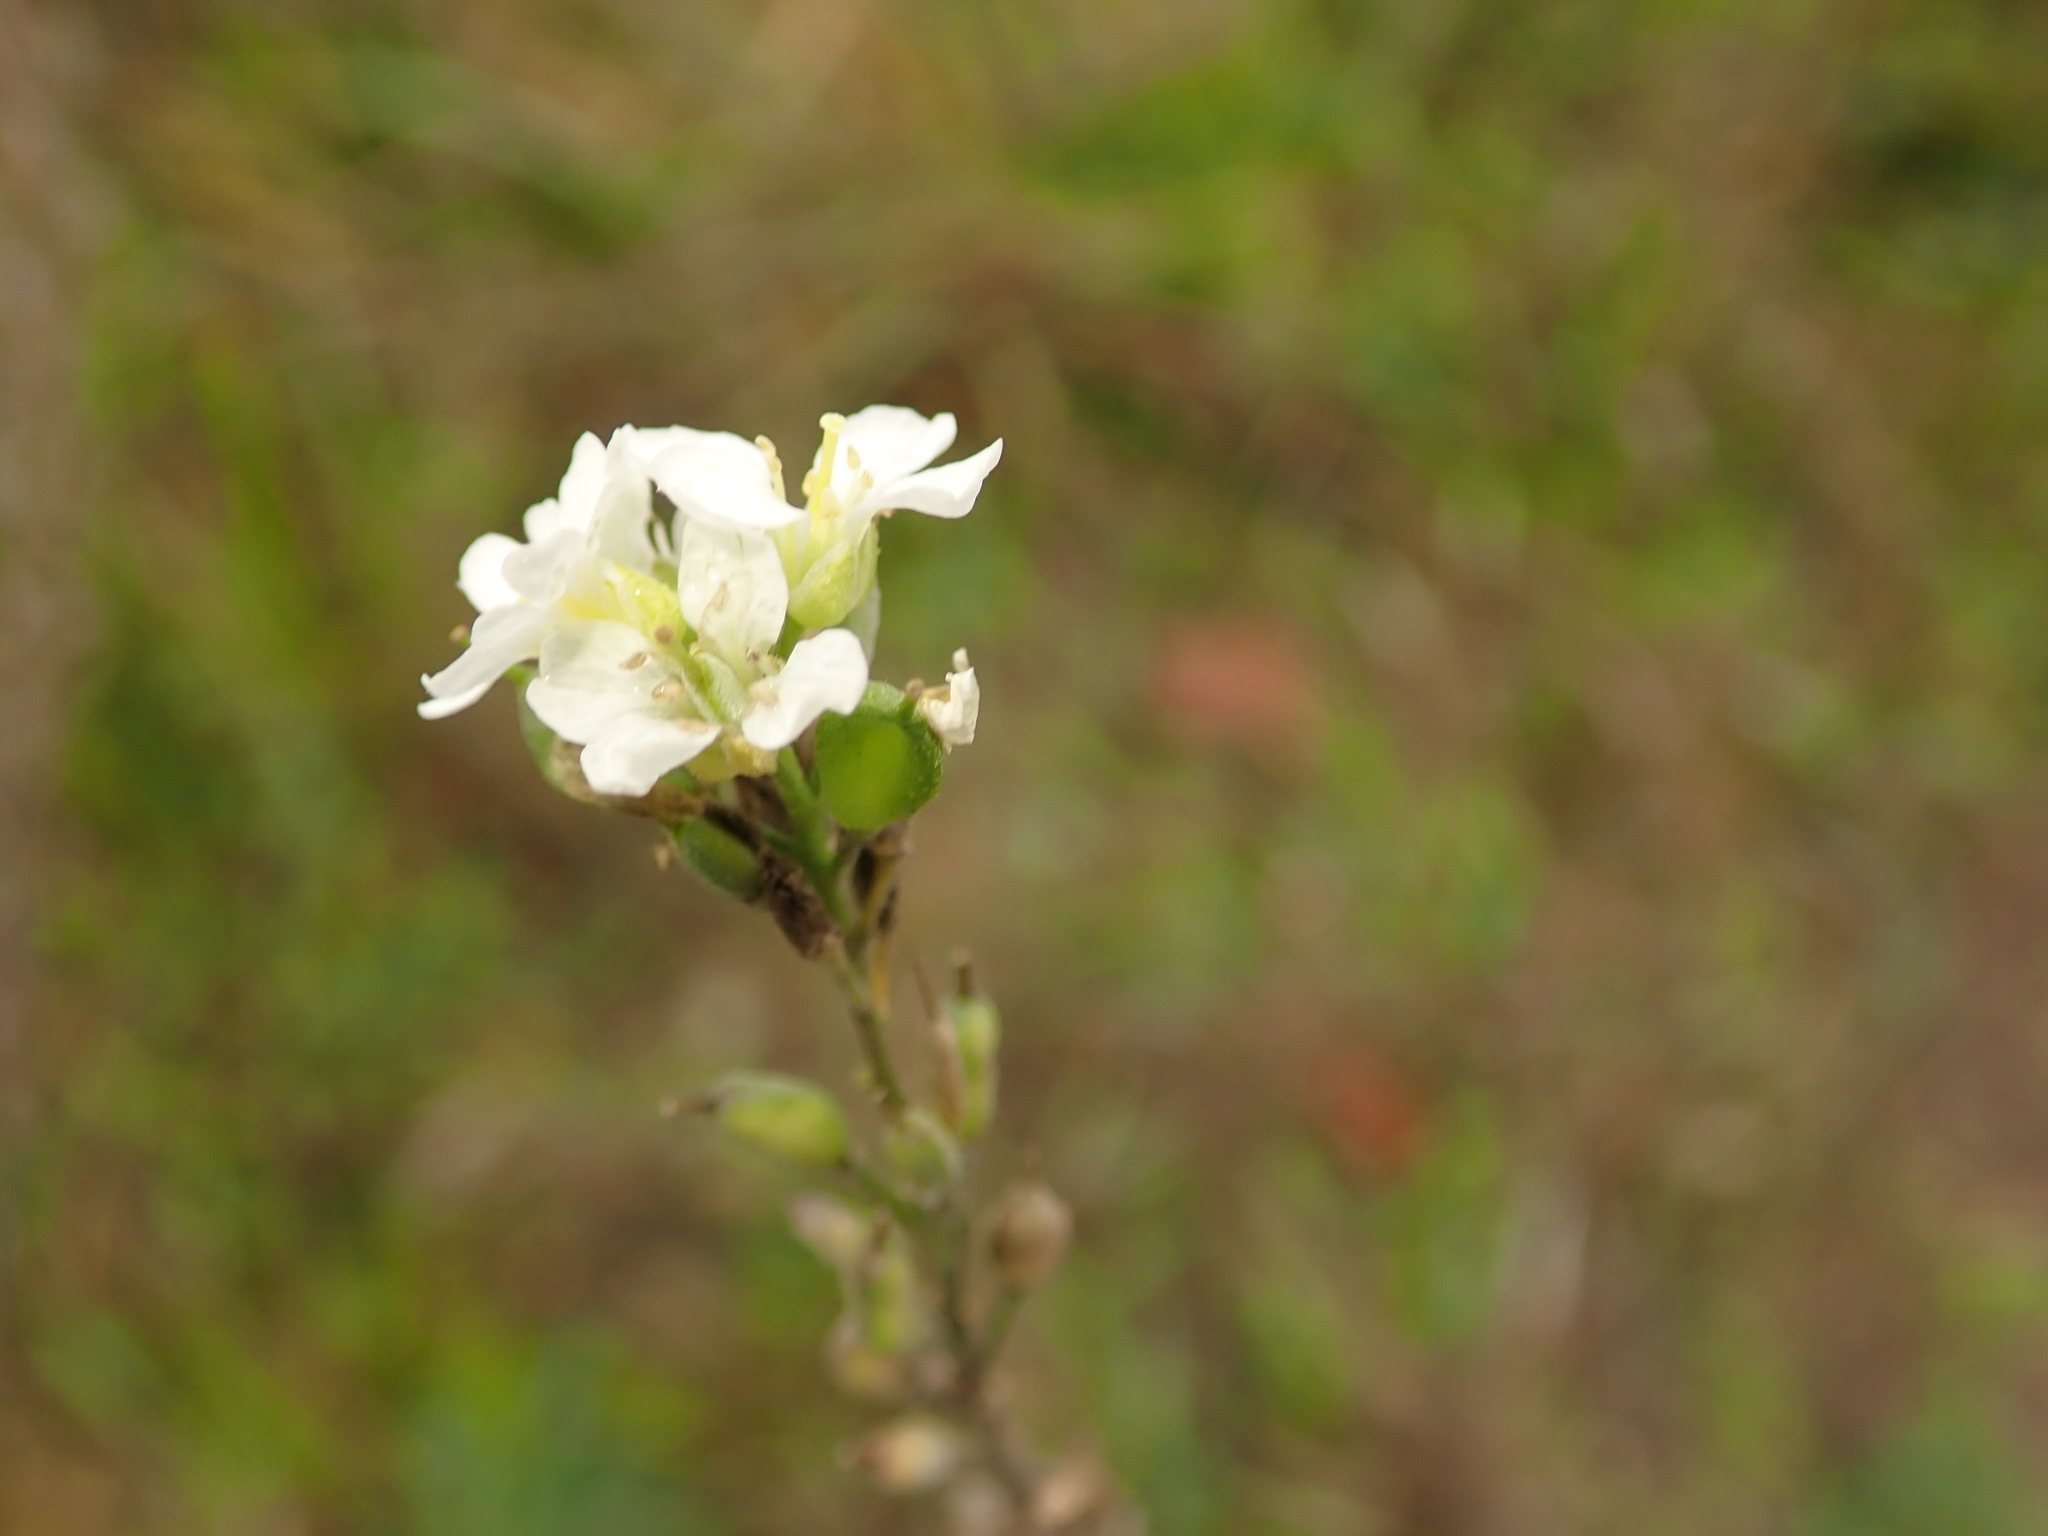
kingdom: Plantae
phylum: Tracheophyta
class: Magnoliopsida
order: Brassicales
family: Brassicaceae
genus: Berteroa
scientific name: Berteroa incana
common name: Hoary alison
